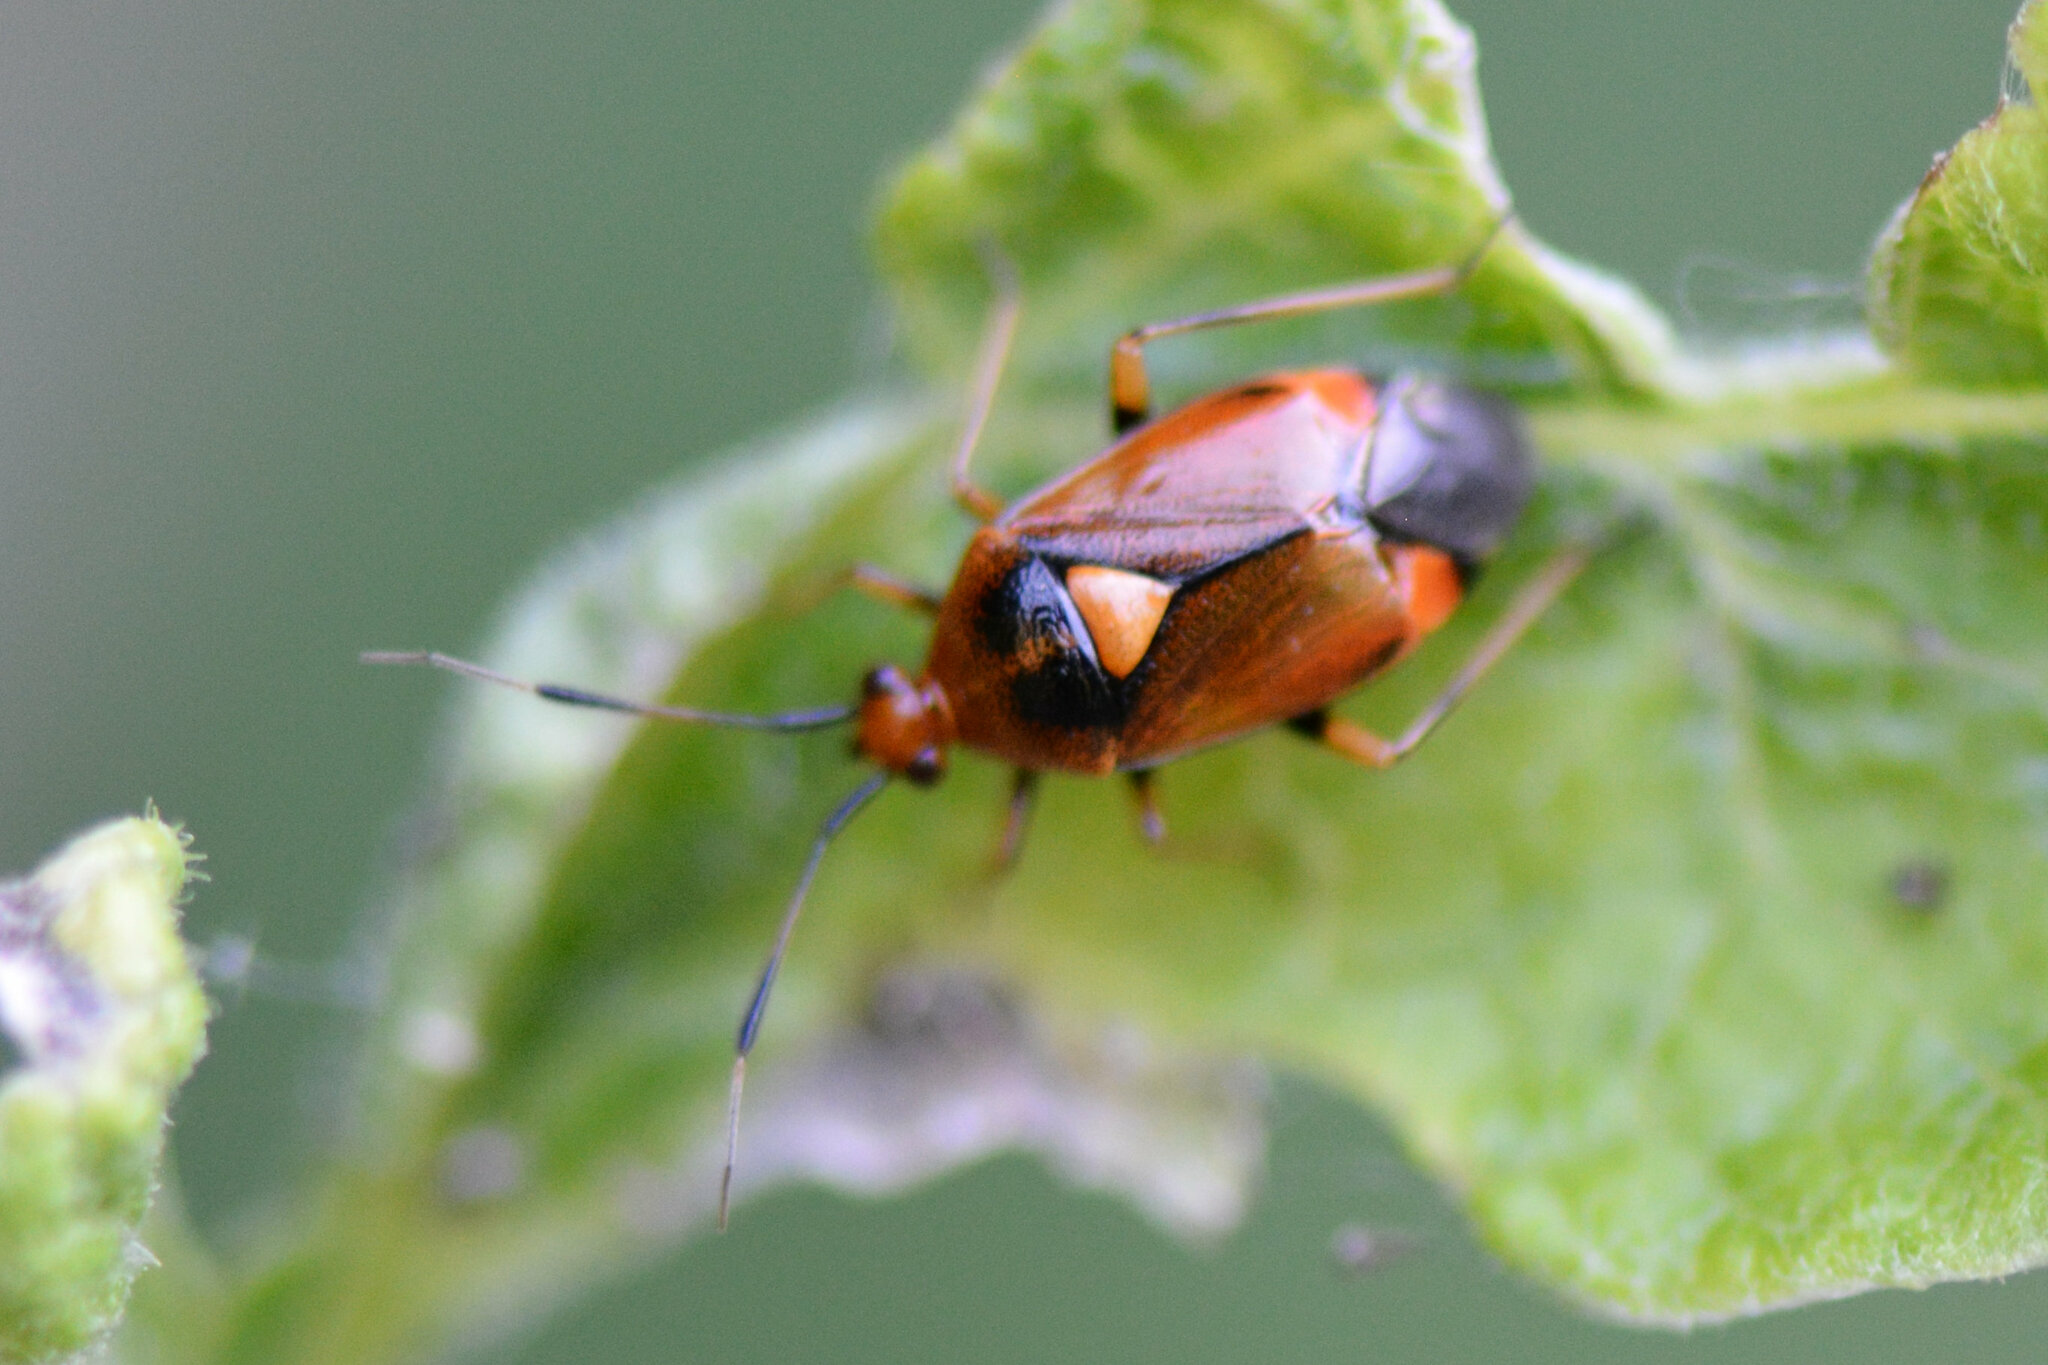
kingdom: Animalia
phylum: Arthropoda
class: Insecta
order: Hemiptera
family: Miridae
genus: Deraeocoris
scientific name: Deraeocoris ruber
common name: Plant bug
